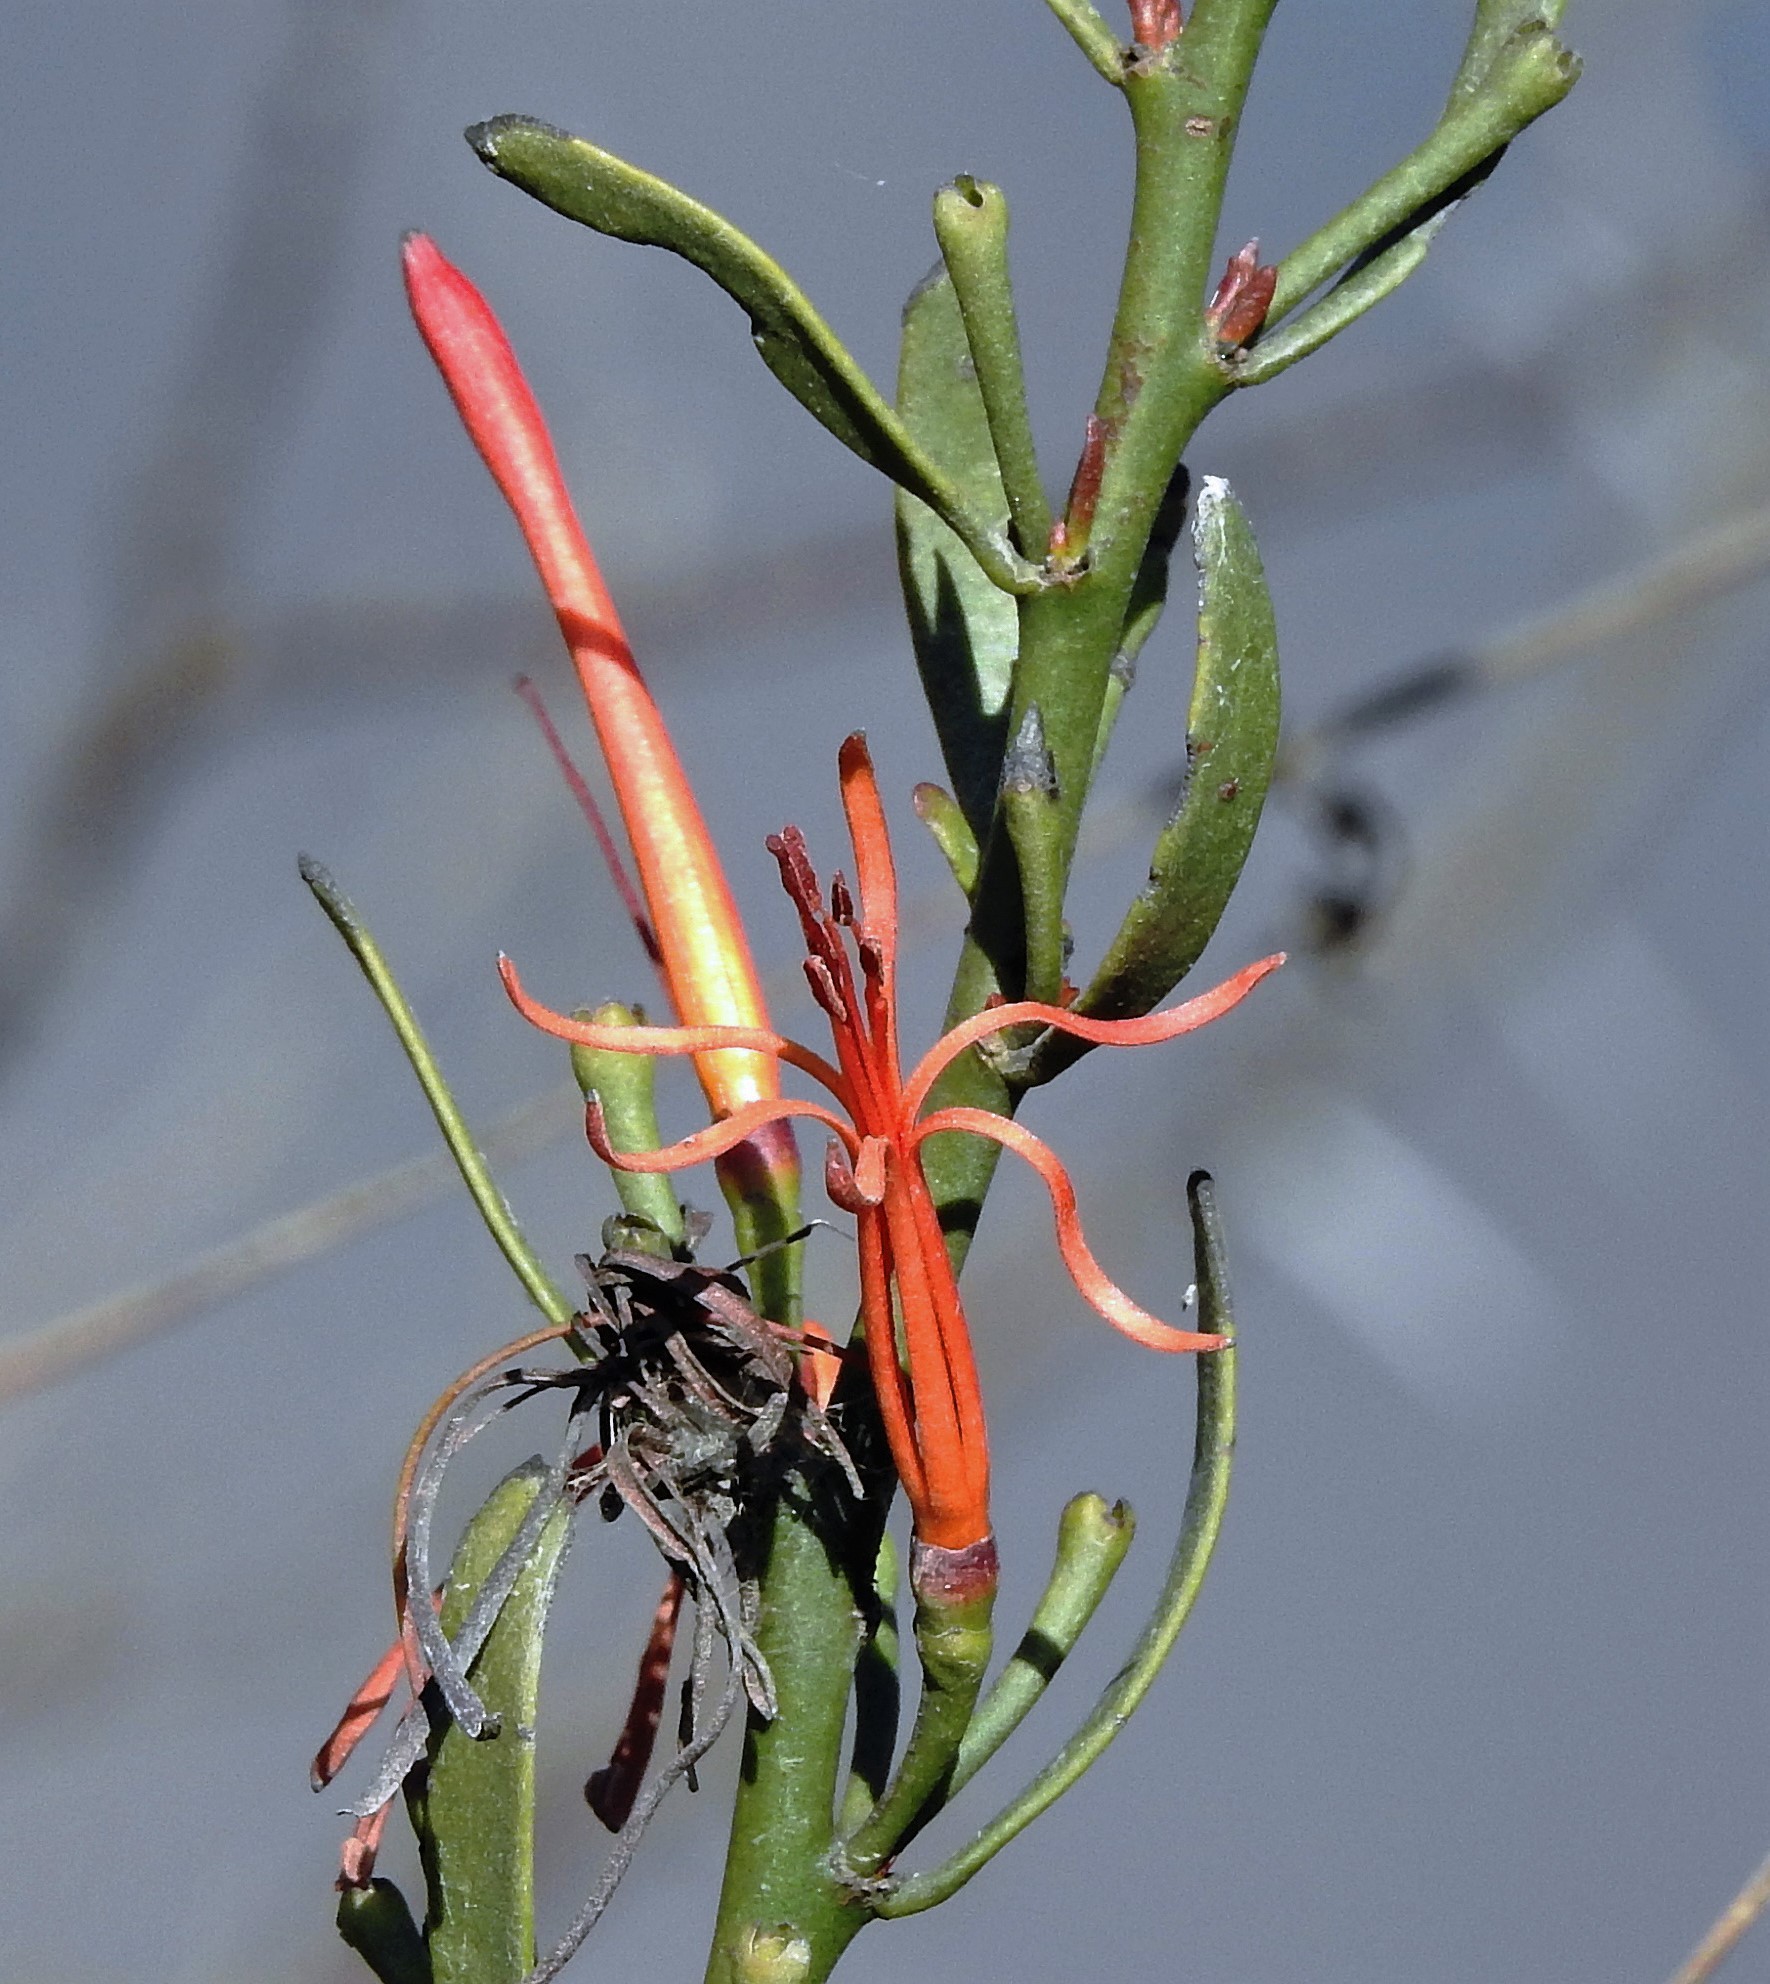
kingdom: Plantae
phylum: Tracheophyta
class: Magnoliopsida
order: Santalales
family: Loranthaceae
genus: Ligaria
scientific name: Ligaria cuneifolia
